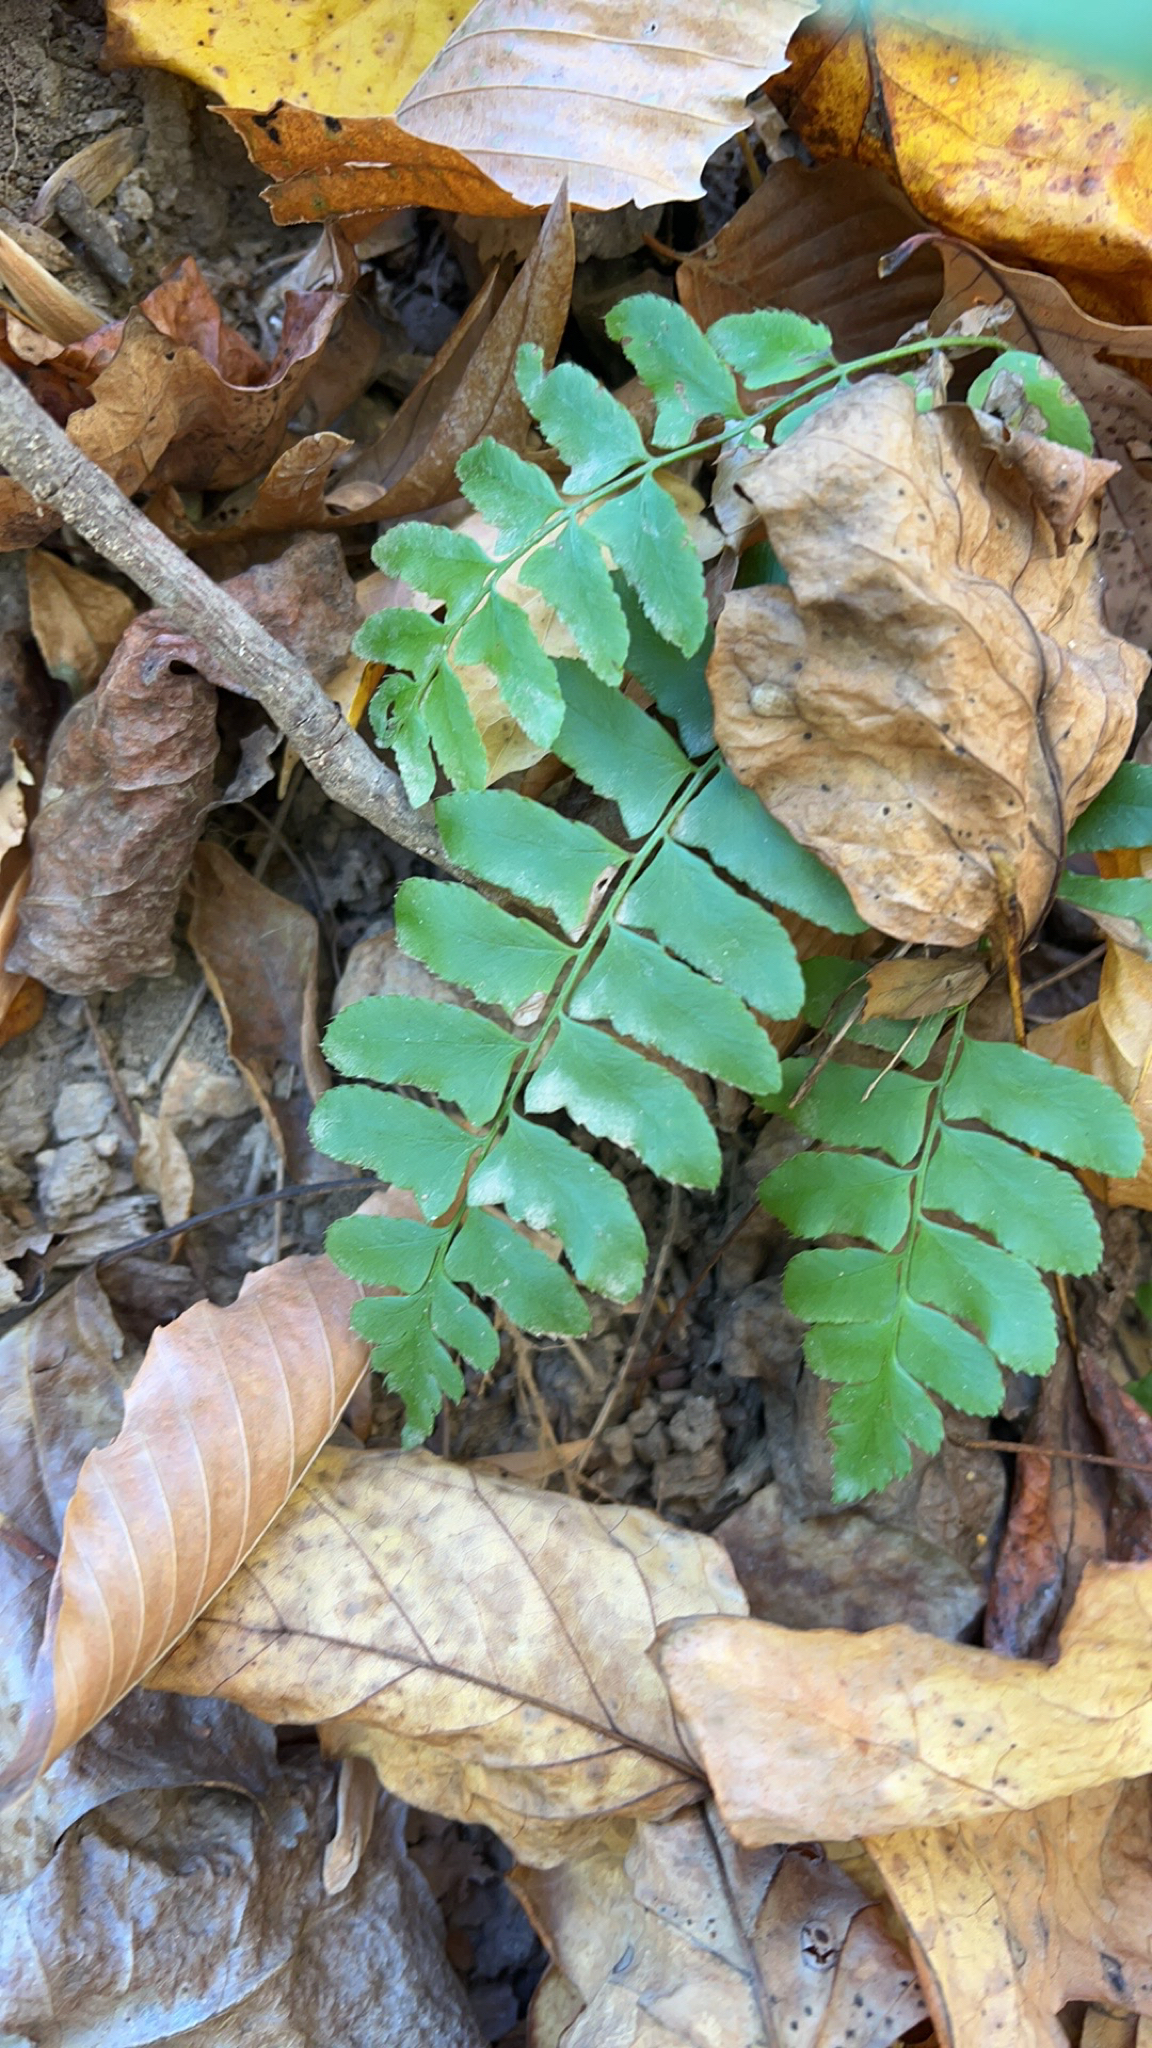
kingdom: Plantae
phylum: Tracheophyta
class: Polypodiopsida
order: Polypodiales
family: Dryopteridaceae
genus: Polystichum
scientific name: Polystichum acrostichoides
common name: Christmas fern
